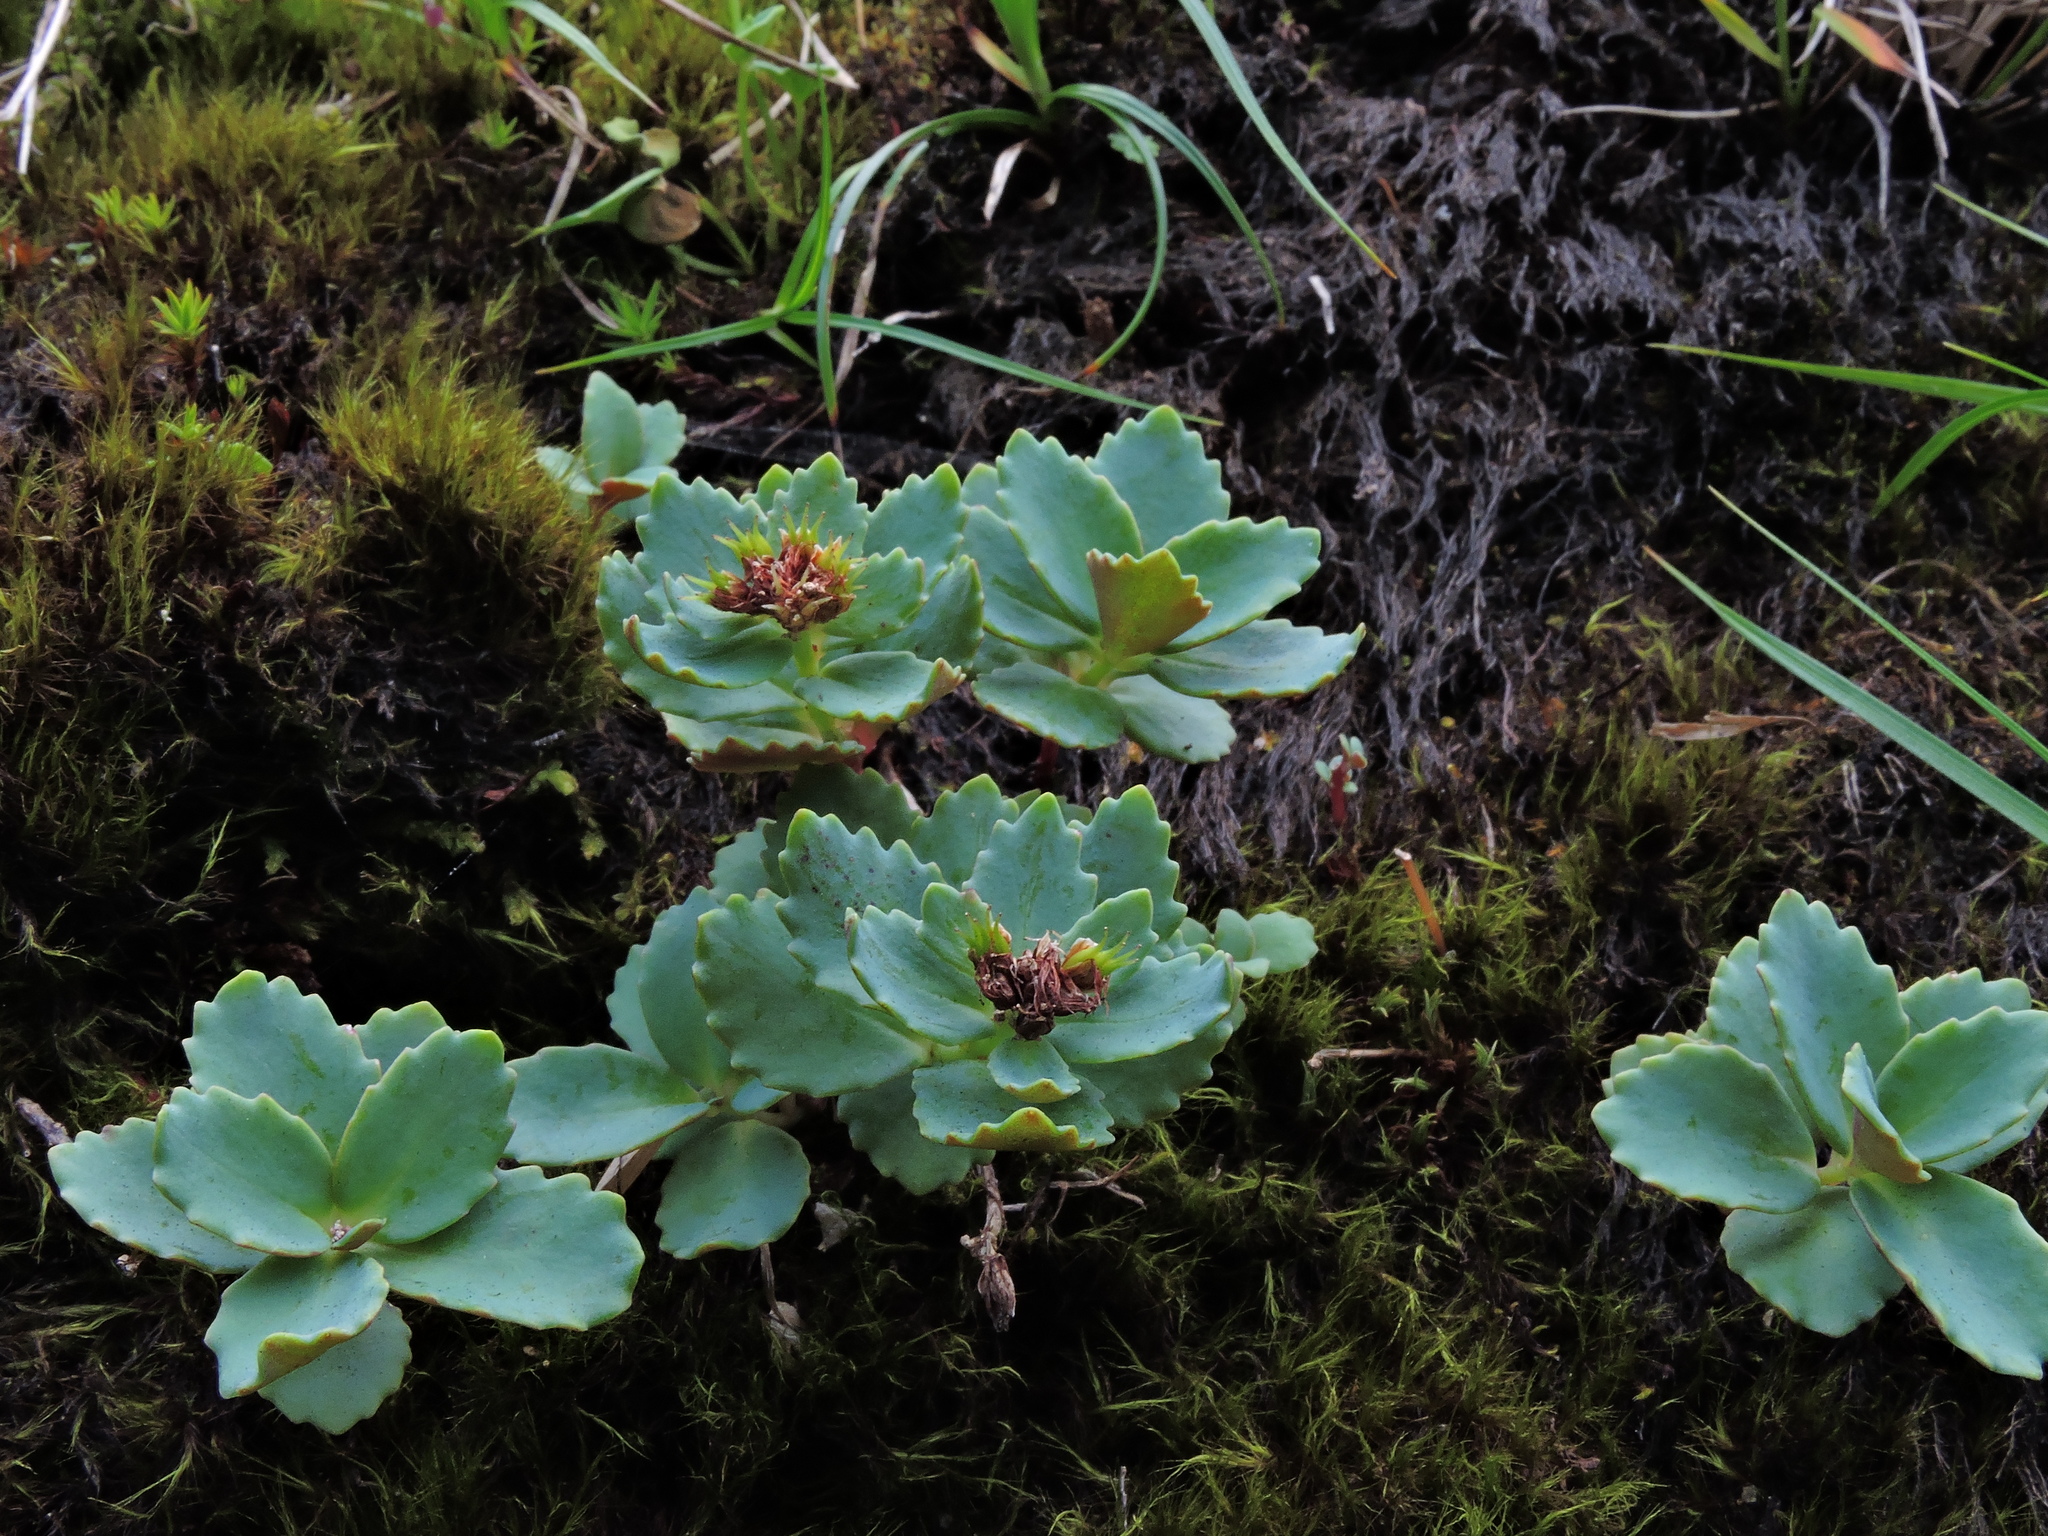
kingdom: Plantae
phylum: Tracheophyta
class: Magnoliopsida
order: Saxifragales
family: Crassulaceae
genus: Phedimus
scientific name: Phedimus subcapitatus
